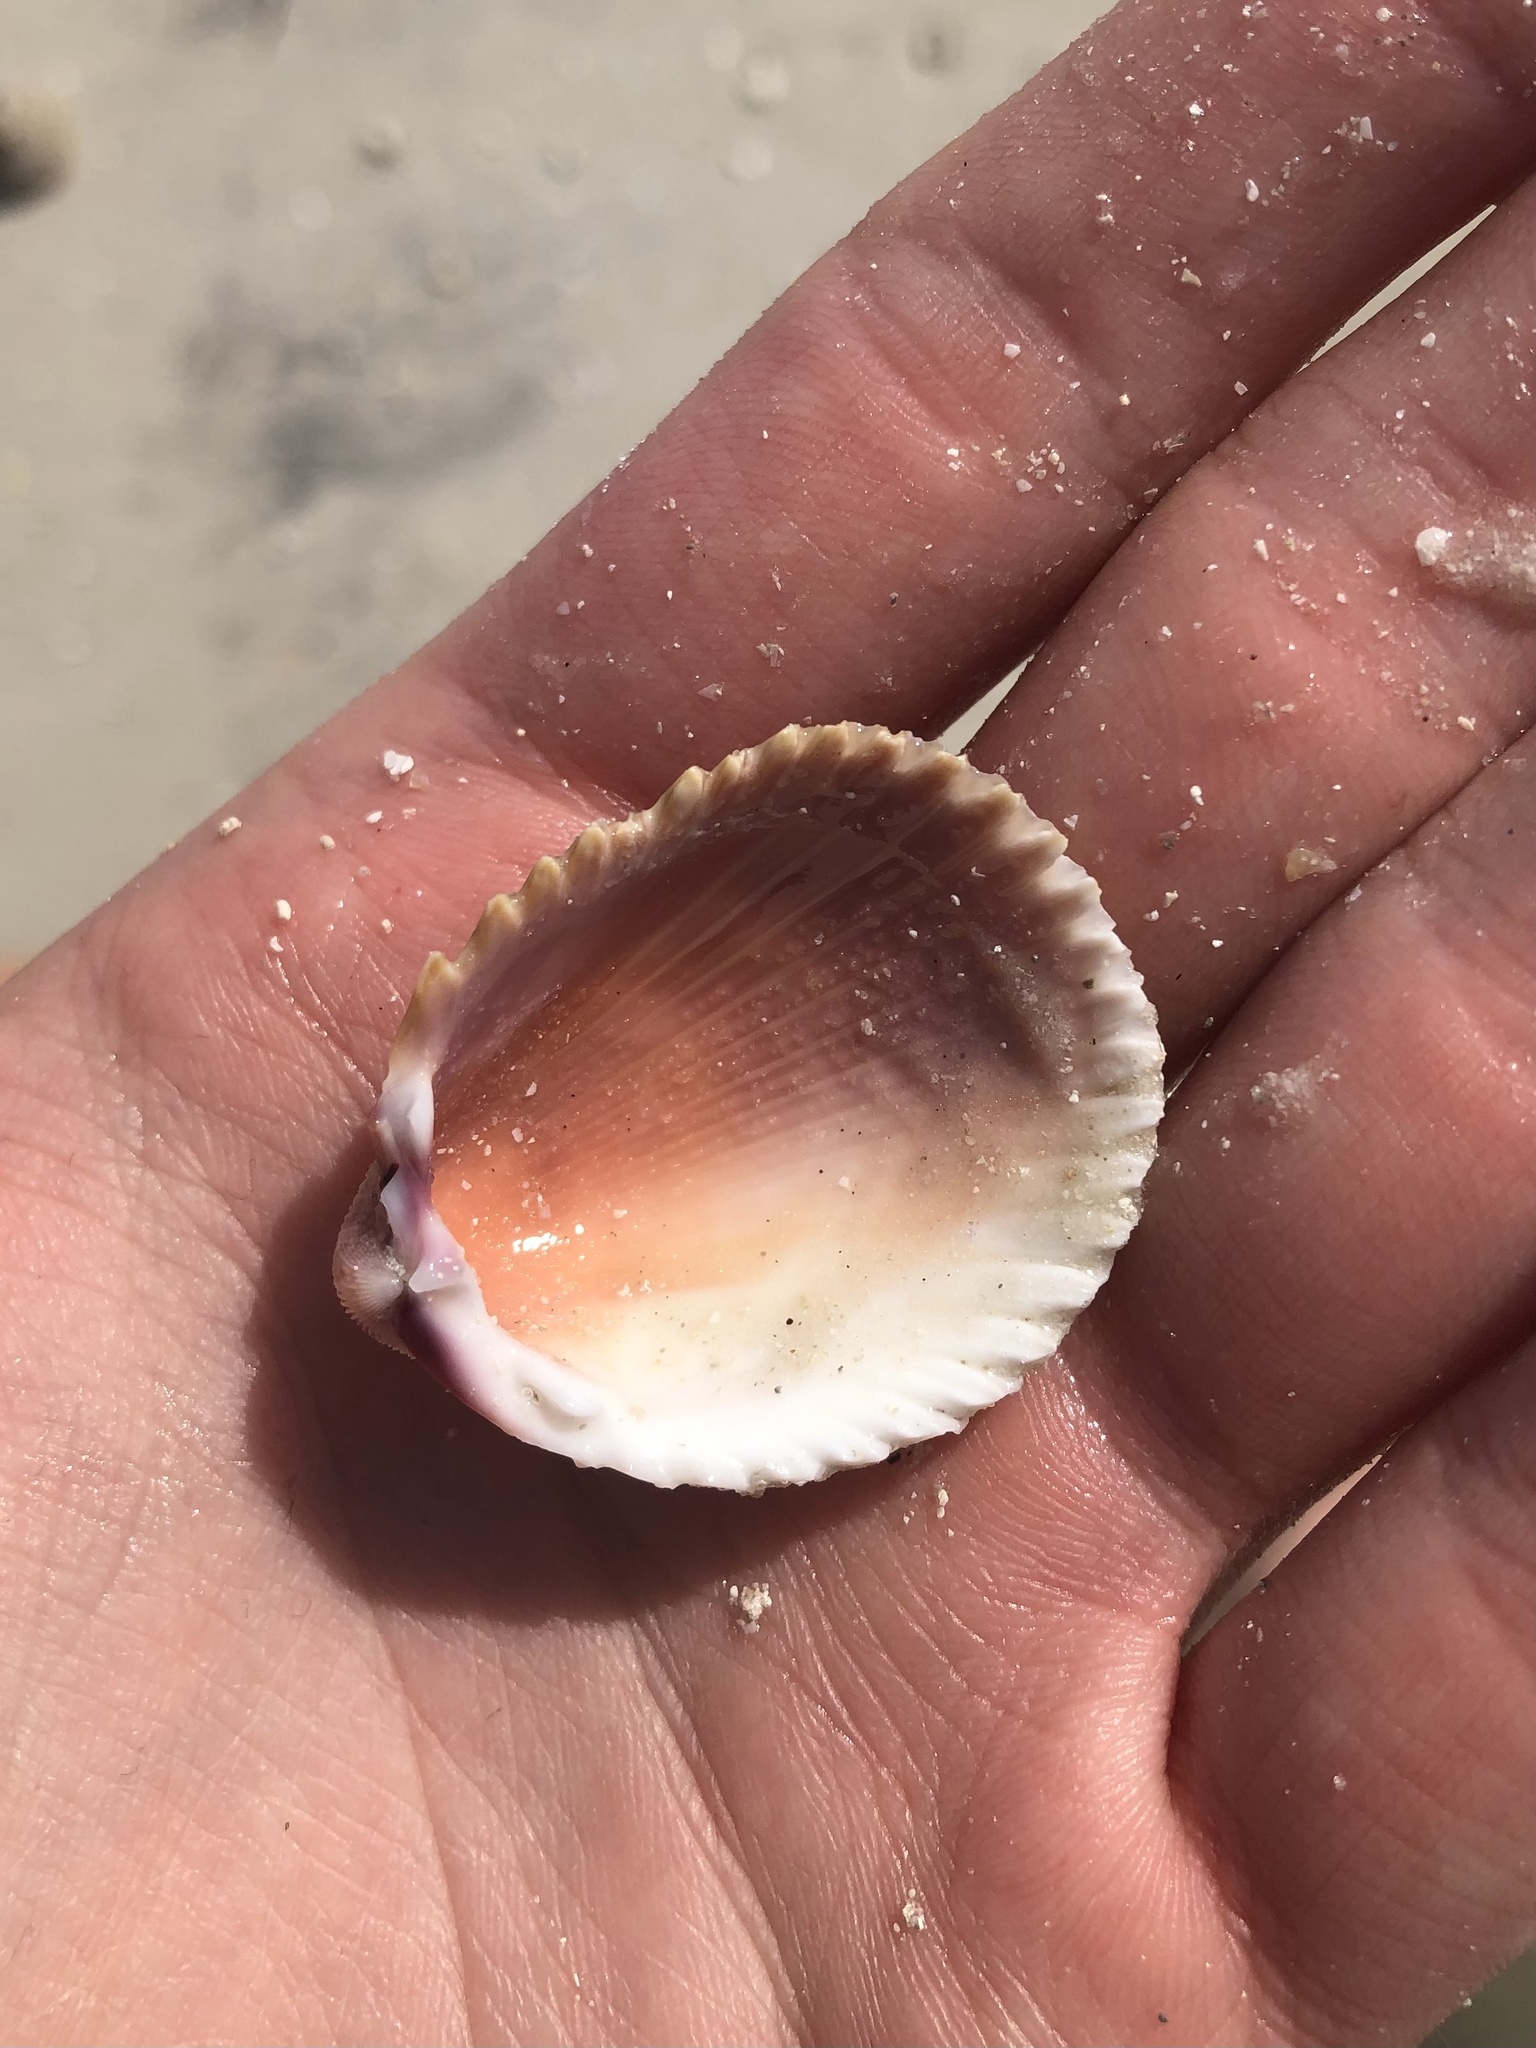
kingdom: Animalia
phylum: Mollusca
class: Bivalvia
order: Cardiida
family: Cardiidae
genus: Trachycardium
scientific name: Trachycardium egmontianum
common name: Florida pricklycockle
